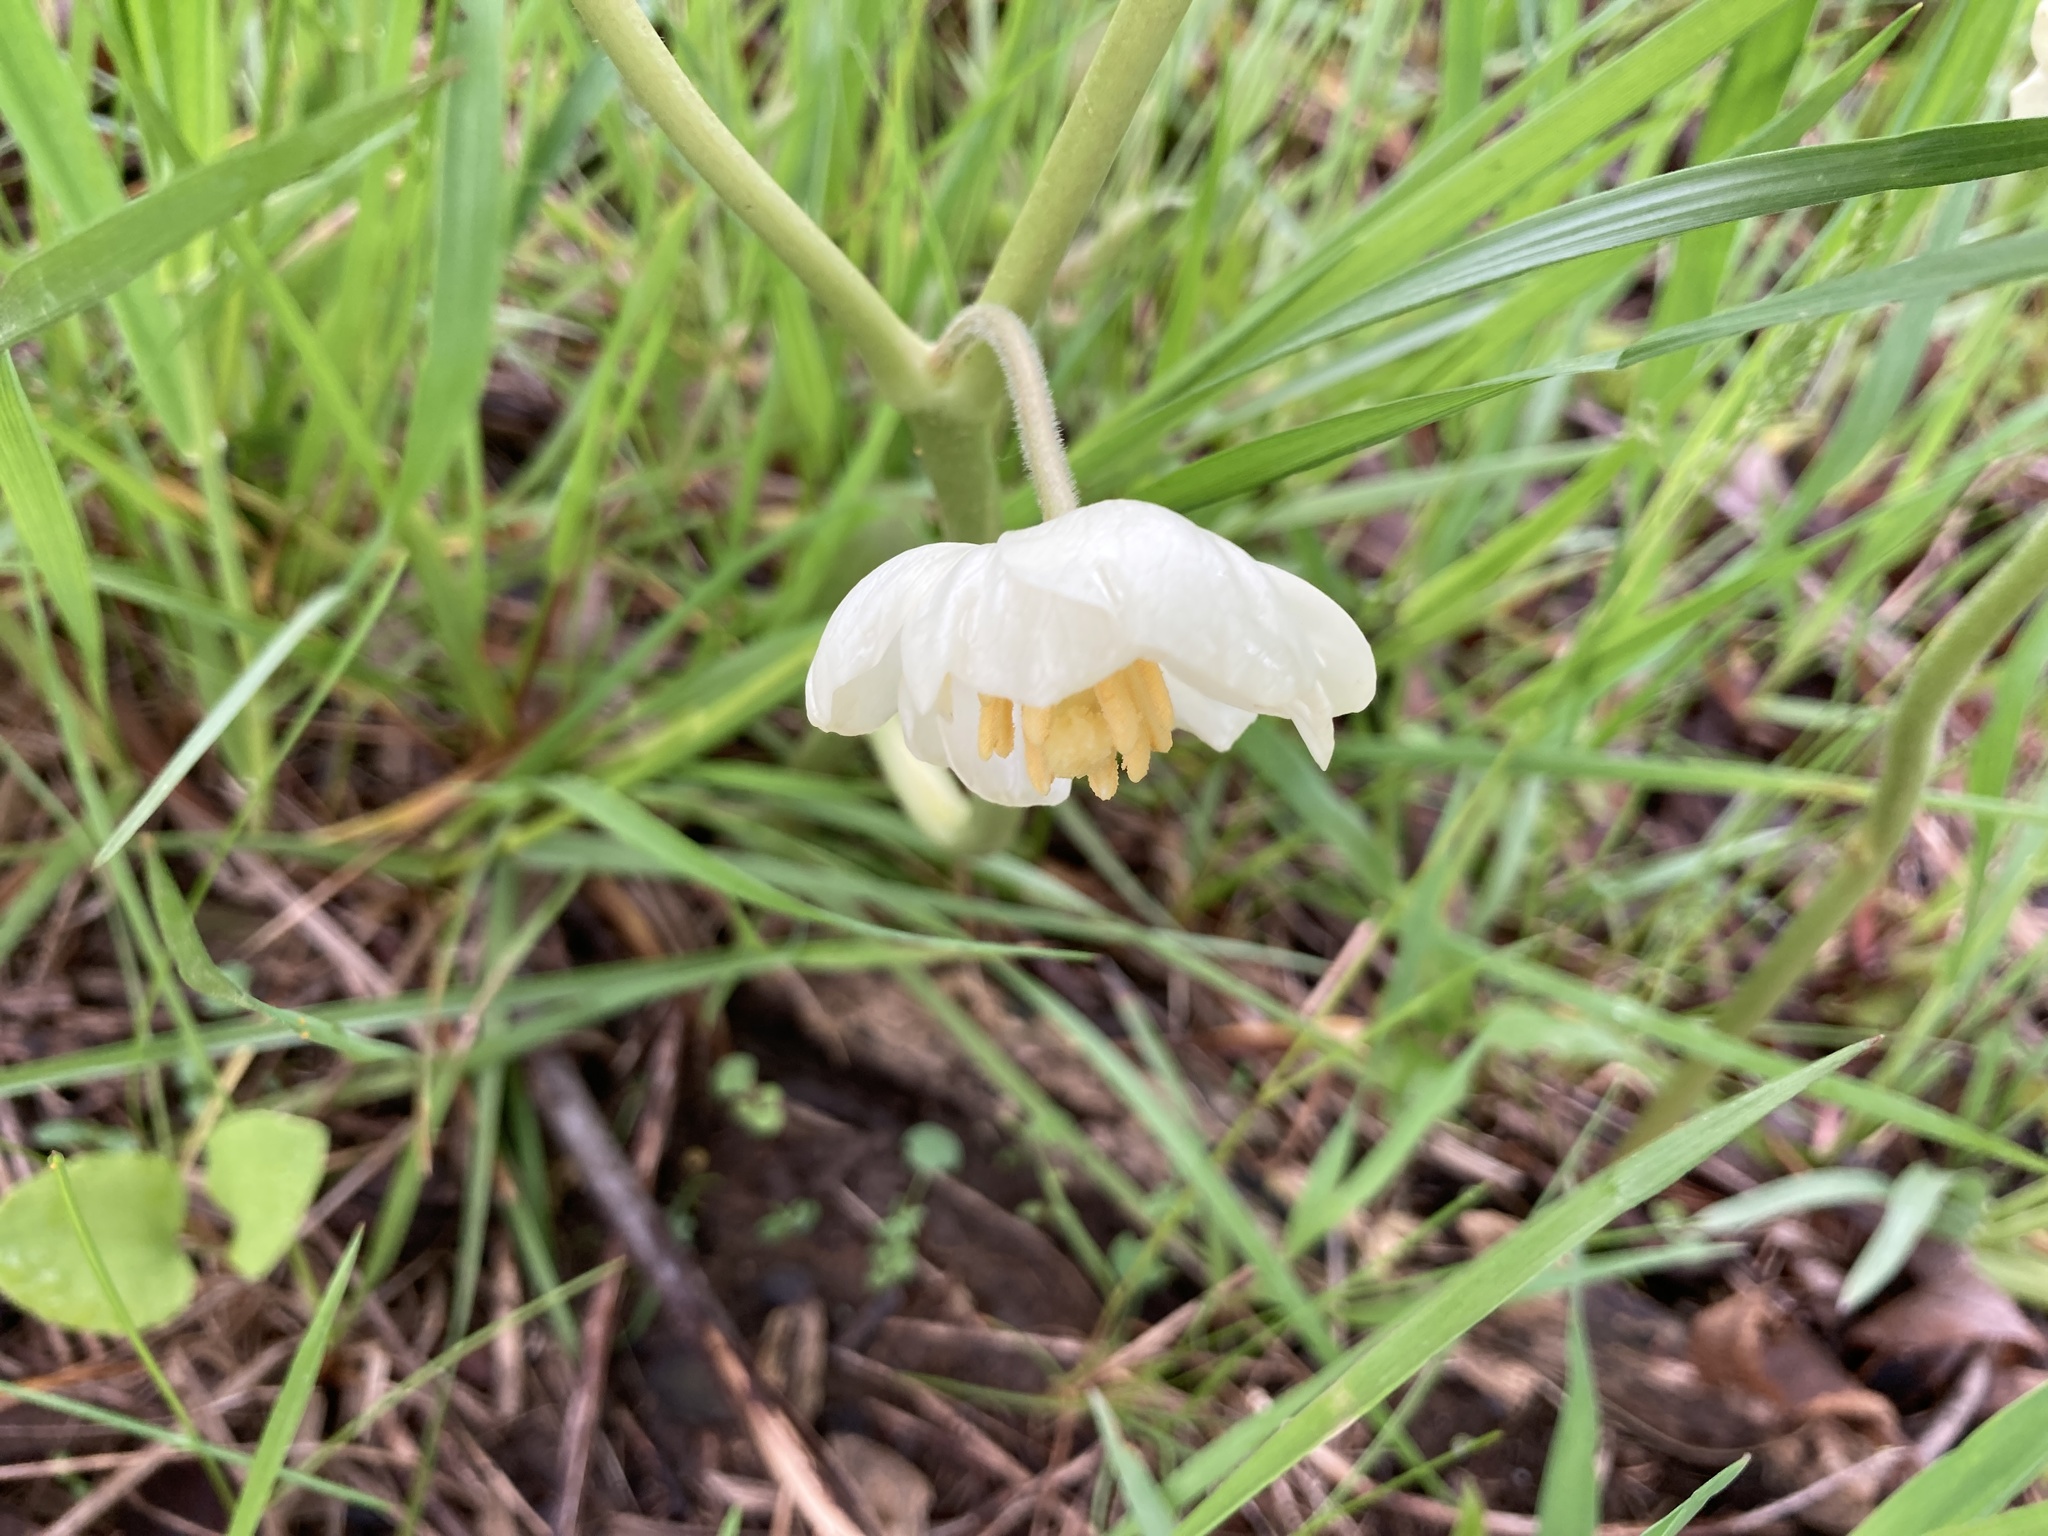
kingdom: Plantae
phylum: Tracheophyta
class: Magnoliopsida
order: Ranunculales
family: Berberidaceae
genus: Podophyllum
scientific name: Podophyllum peltatum
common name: Wild mandrake
